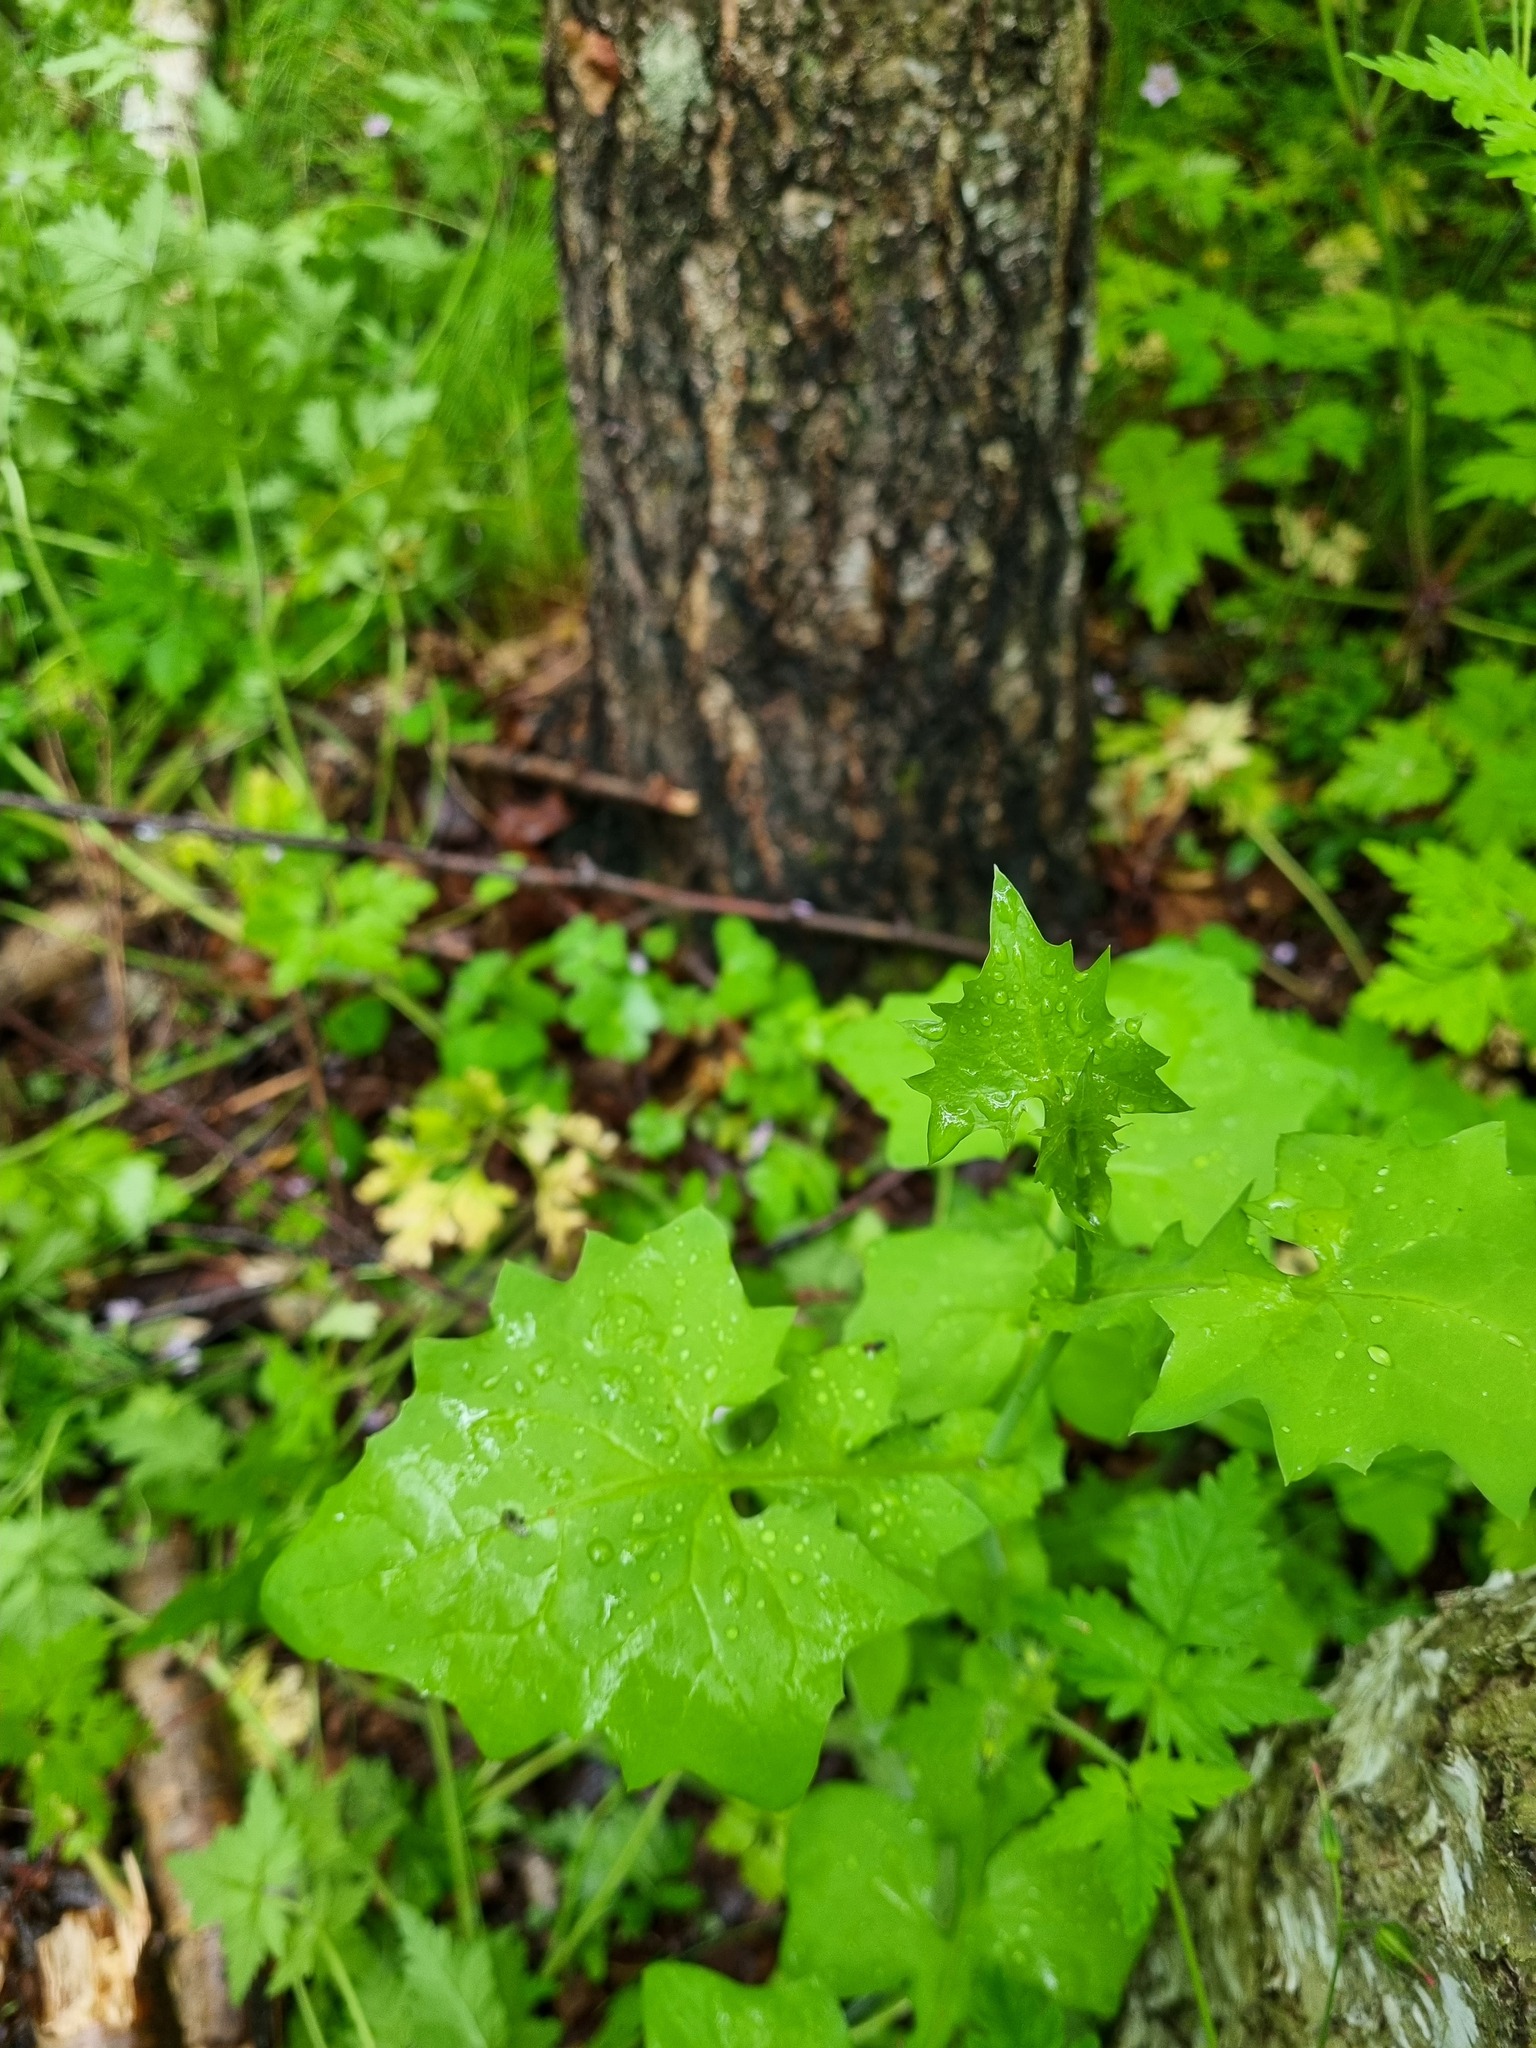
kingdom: Plantae
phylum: Tracheophyta
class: Magnoliopsida
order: Asterales
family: Asteraceae
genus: Mycelis
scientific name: Mycelis muralis
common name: Wall lettuce
